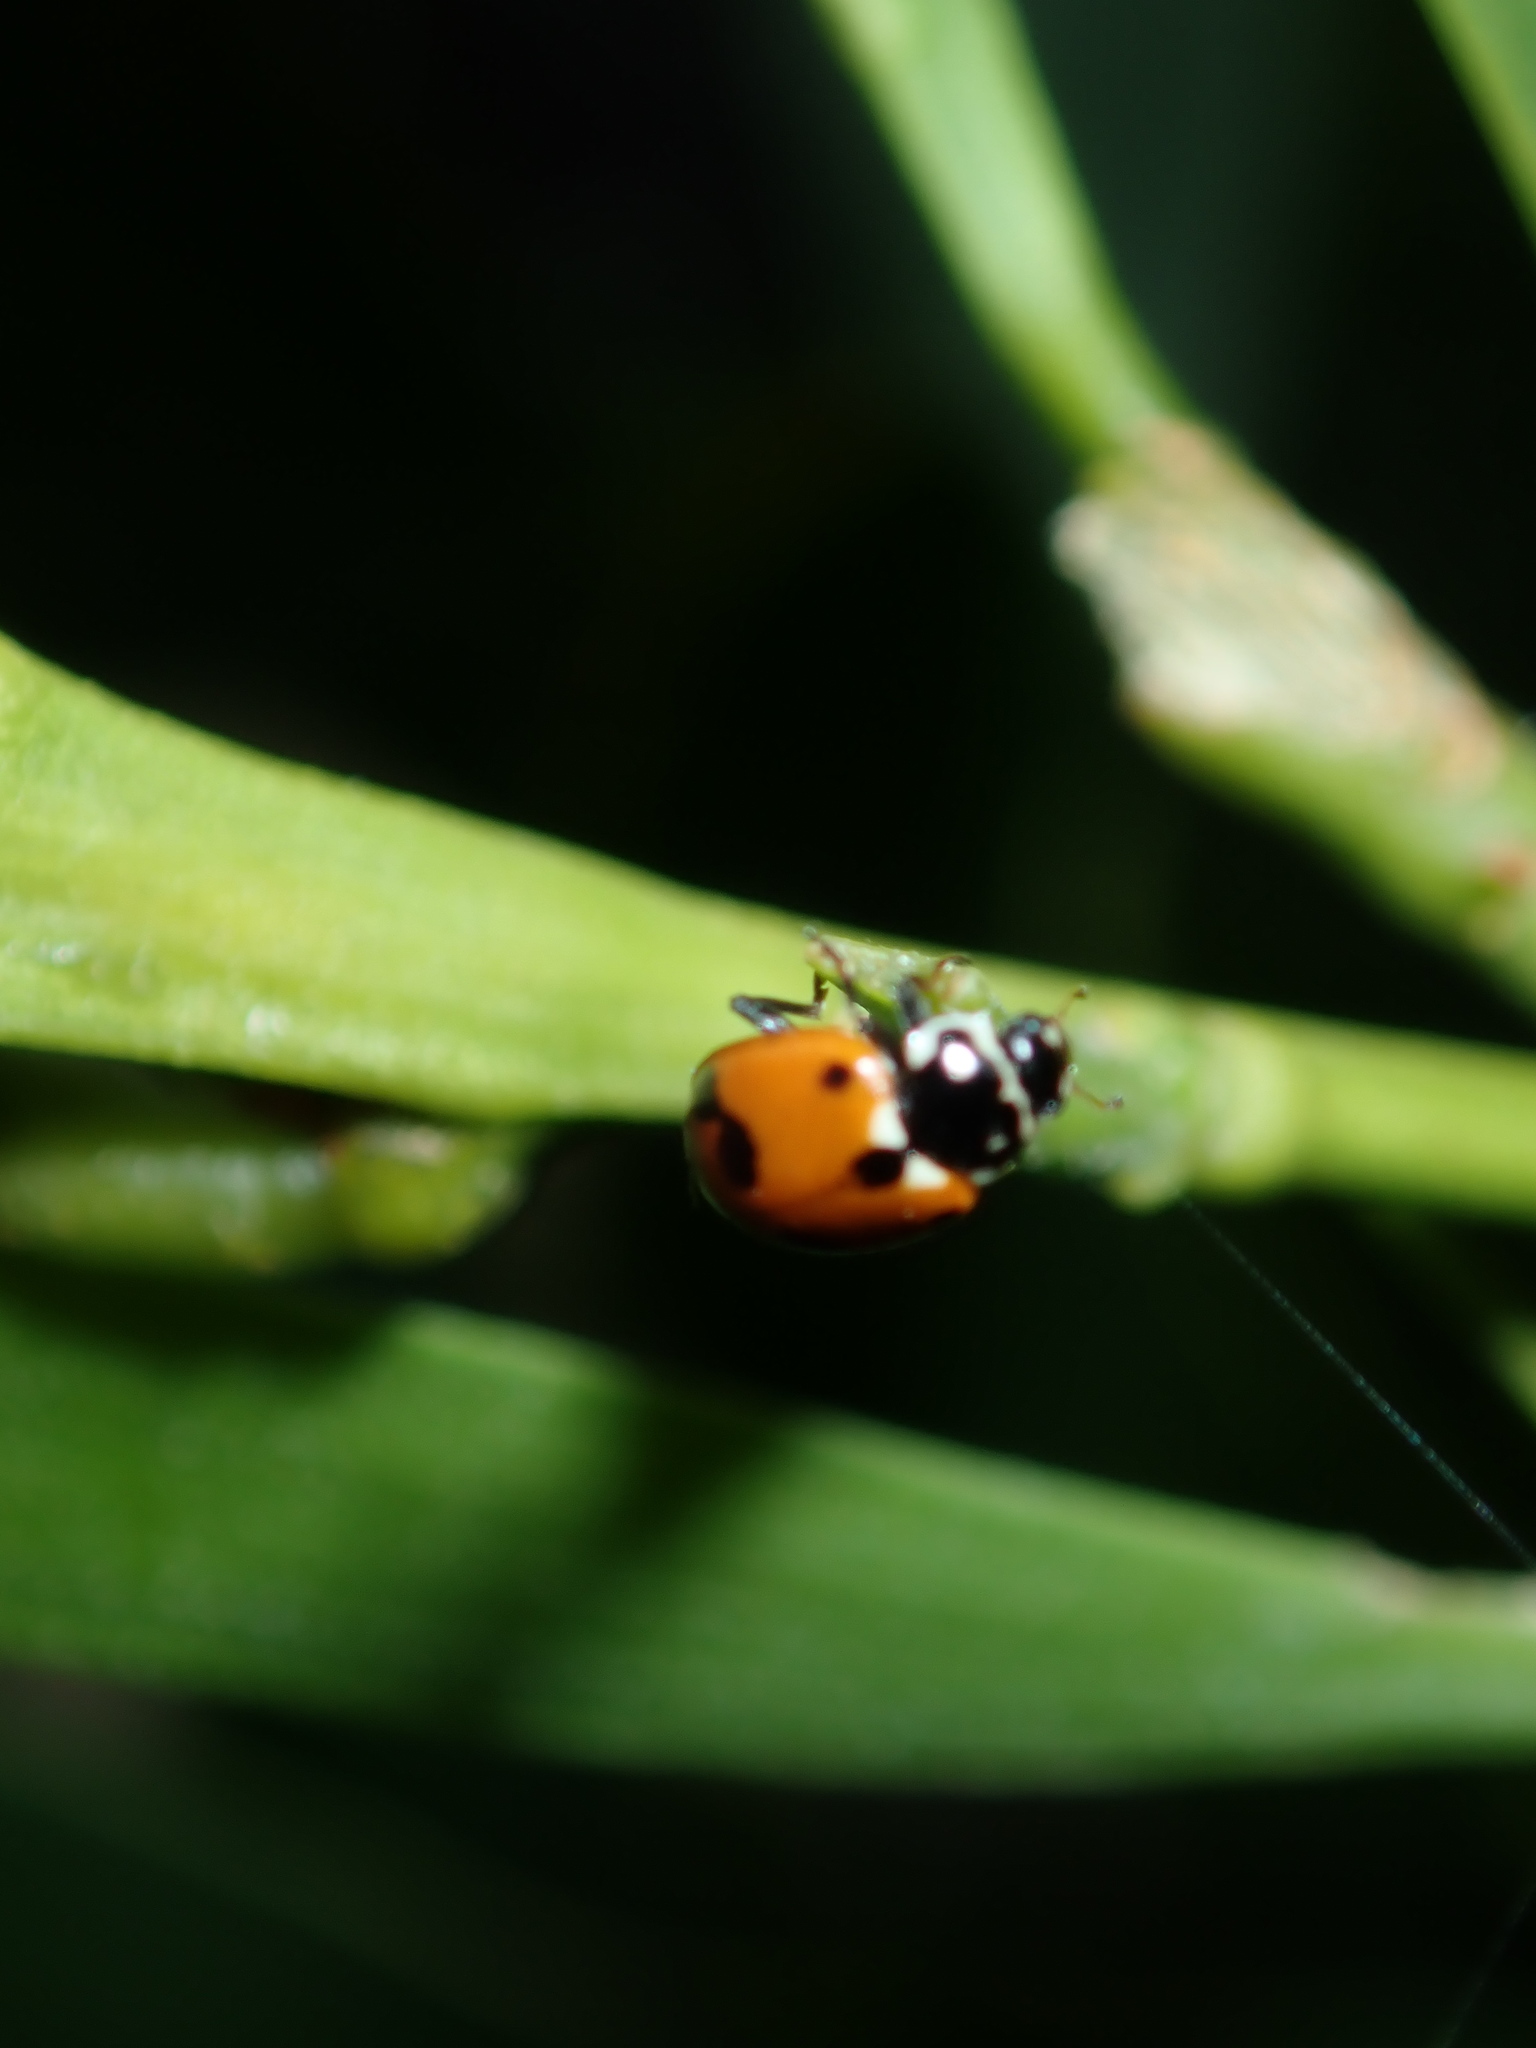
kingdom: Animalia
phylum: Arthropoda
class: Insecta
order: Coleoptera
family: Coccinellidae
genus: Hippodamia
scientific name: Hippodamia variegata
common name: Ladybird beetle
